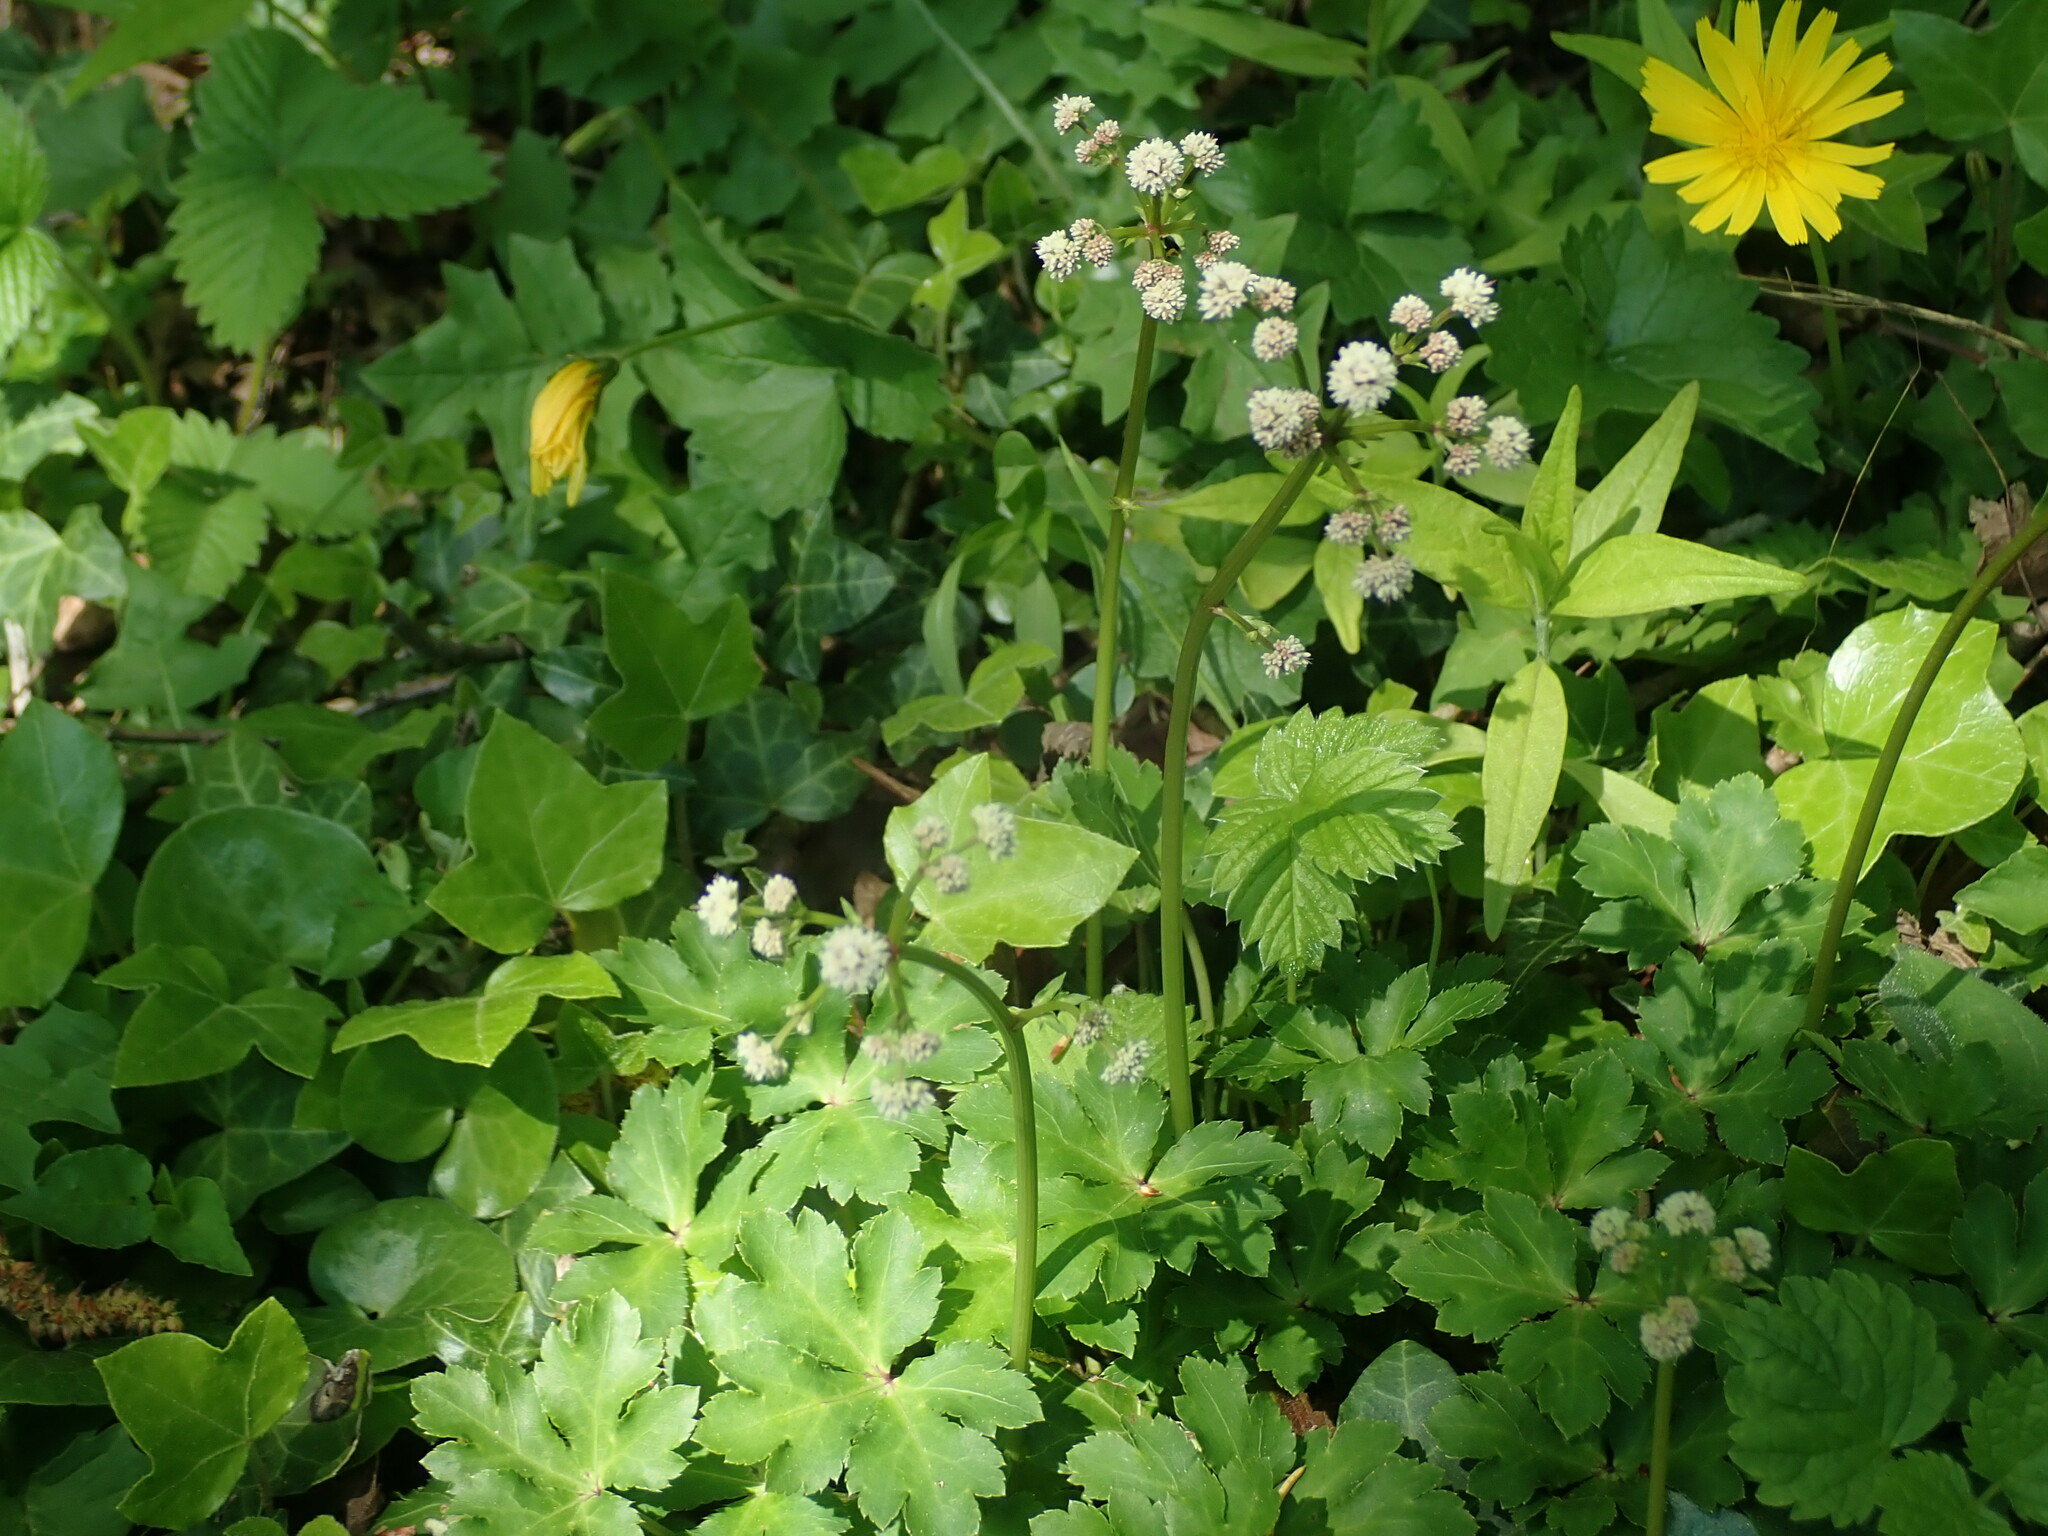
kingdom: Plantae
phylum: Tracheophyta
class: Magnoliopsida
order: Apiales
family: Apiaceae
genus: Sanicula
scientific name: Sanicula europaea
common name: Sanicle
